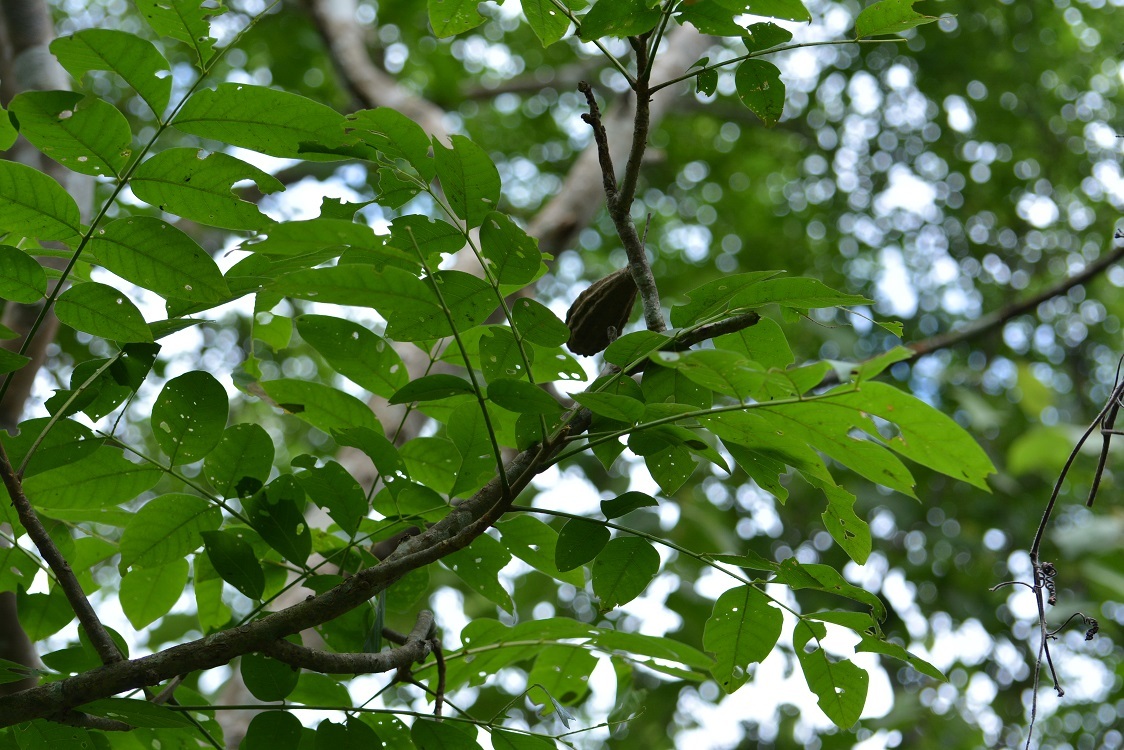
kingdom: Plantae
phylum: Tracheophyta
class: Magnoliopsida
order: Sapindales
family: Meliaceae
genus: Cedrela
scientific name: Cedrela salvadorensis
